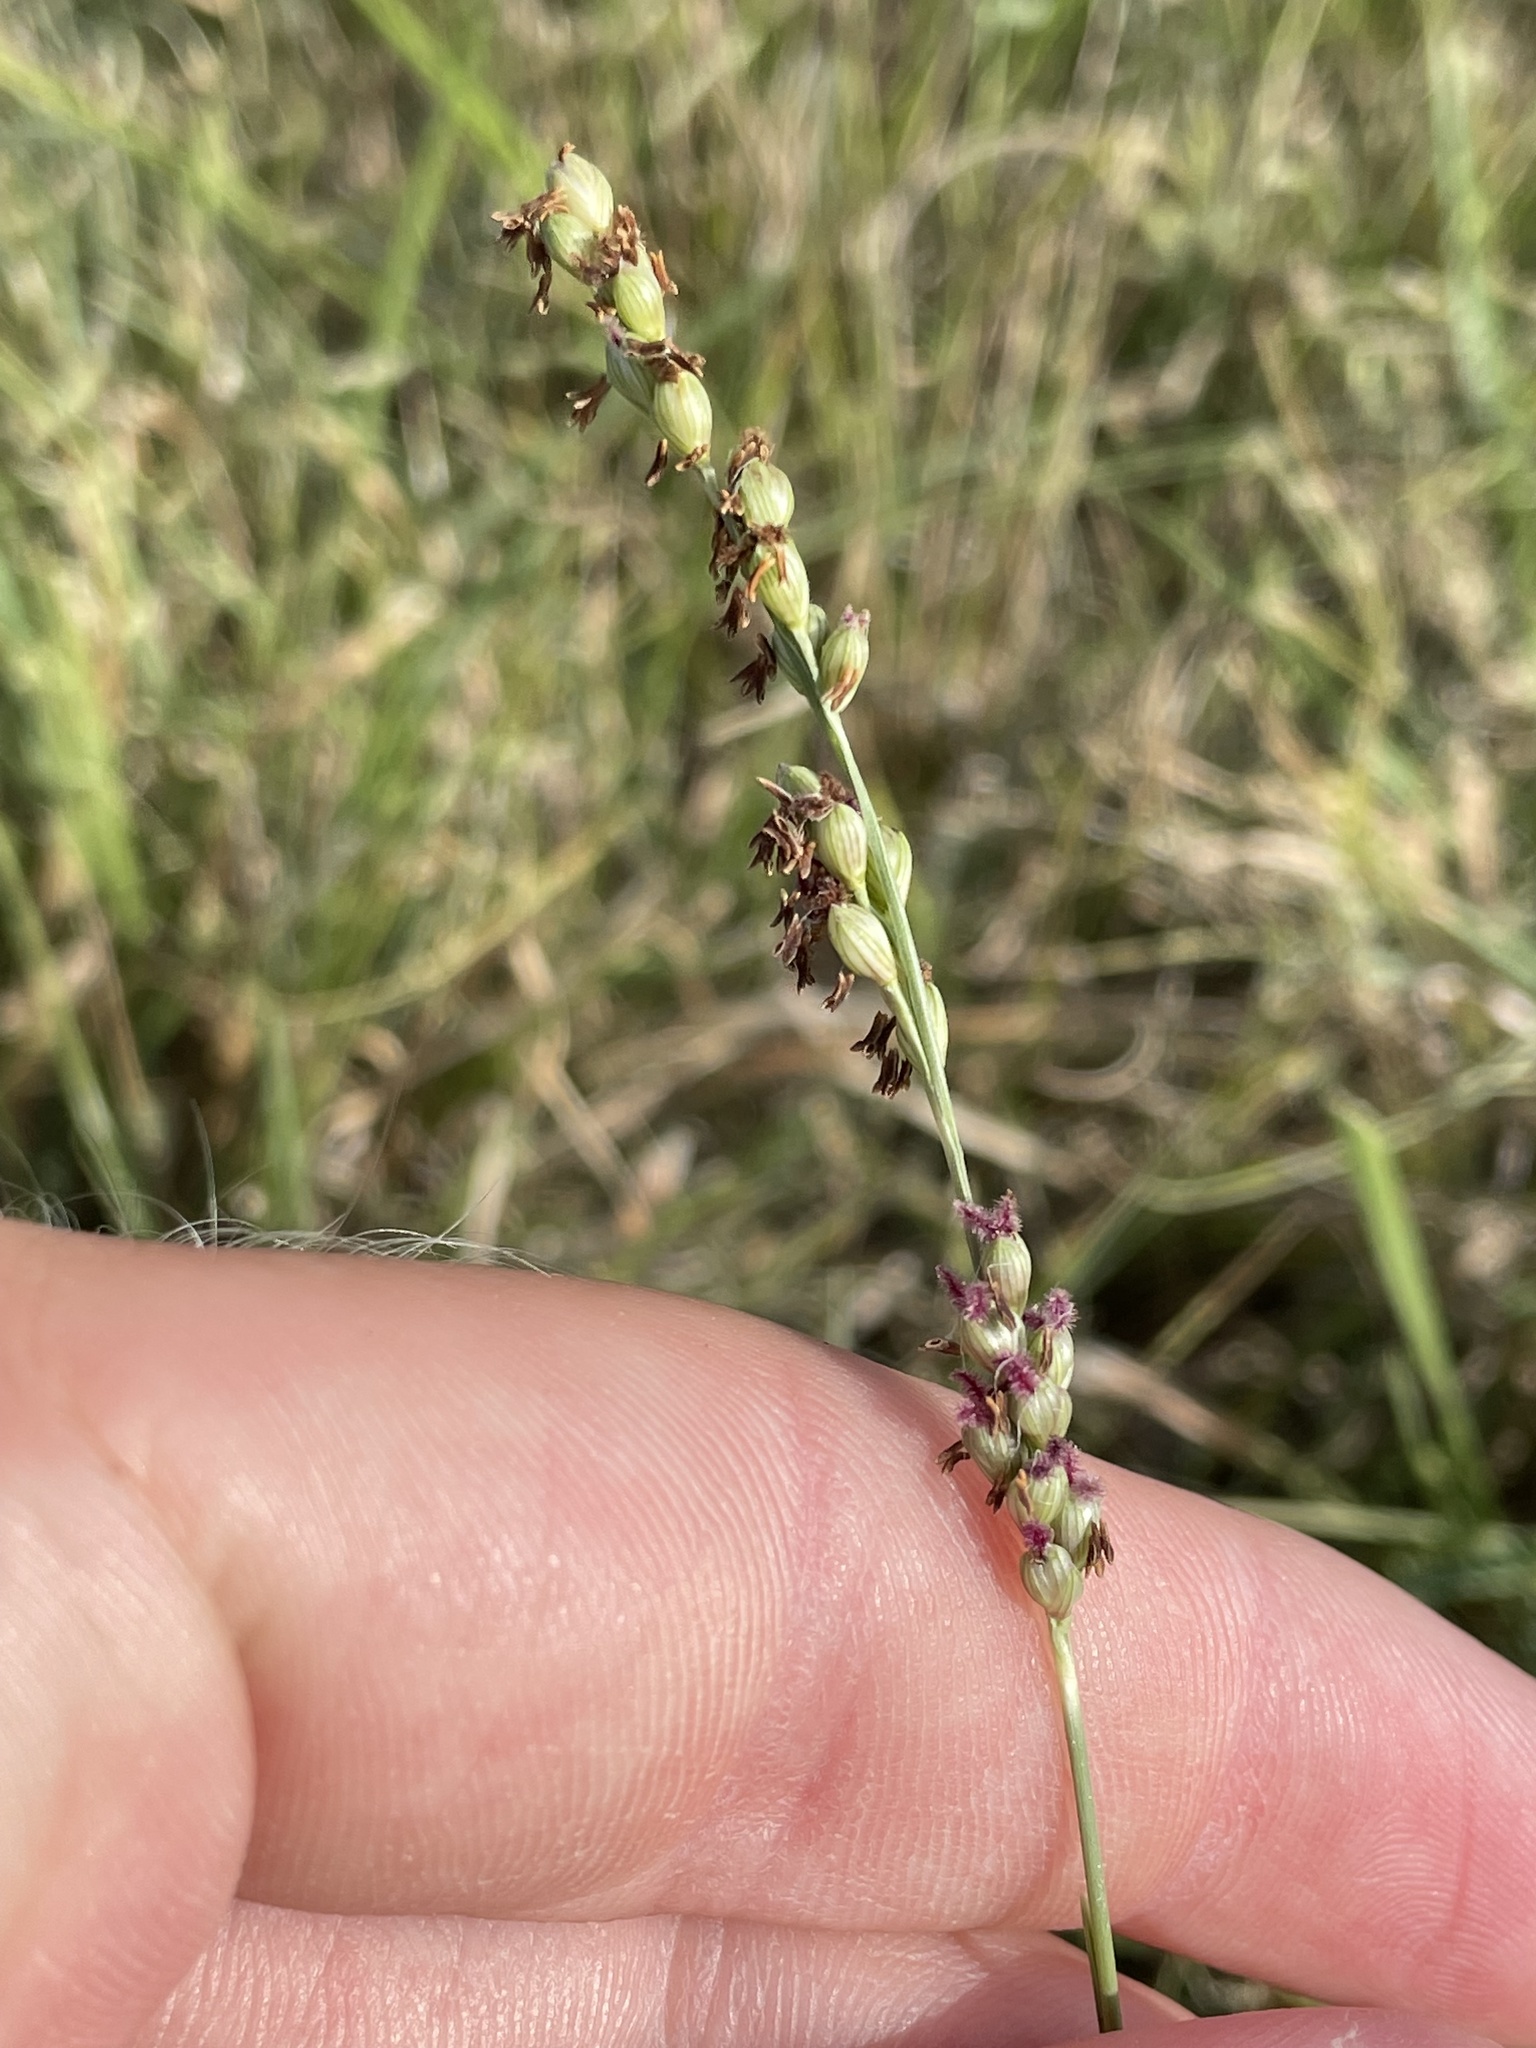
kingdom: Plantae
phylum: Tracheophyta
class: Liliopsida
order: Poales
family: Poaceae
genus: Hopia
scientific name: Hopia obtusa
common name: Vine-mesquite
